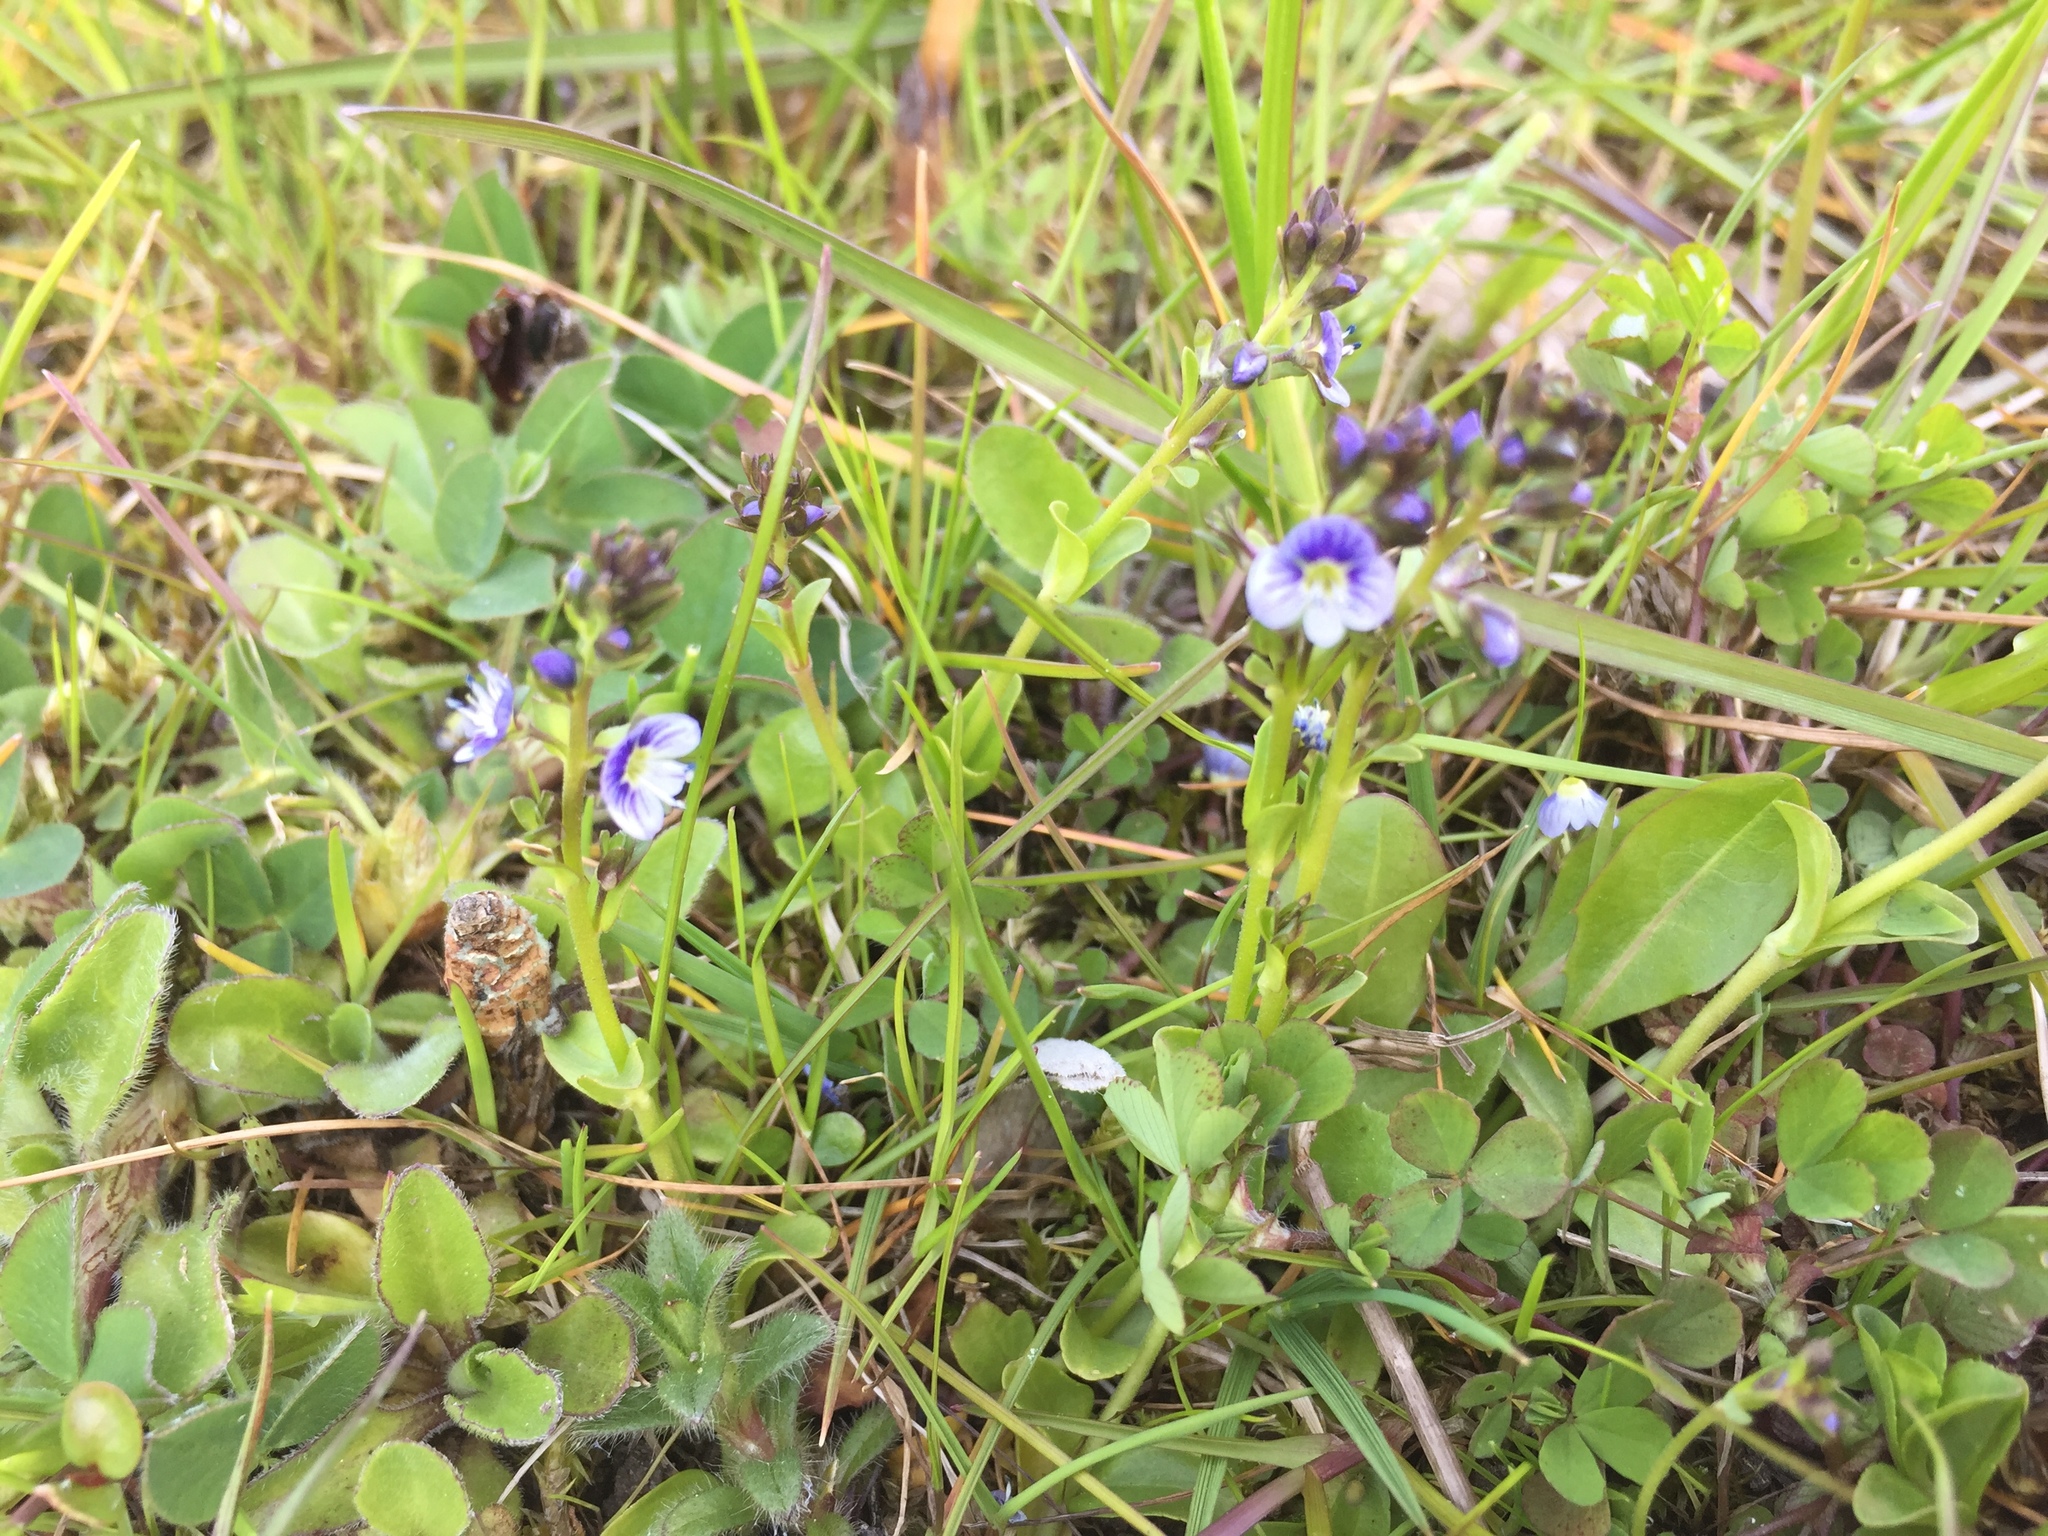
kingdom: Plantae
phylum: Tracheophyta
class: Magnoliopsida
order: Lamiales
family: Plantaginaceae
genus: Veronica
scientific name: Veronica serpyllifolia
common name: Thyme-leaved speedwell
